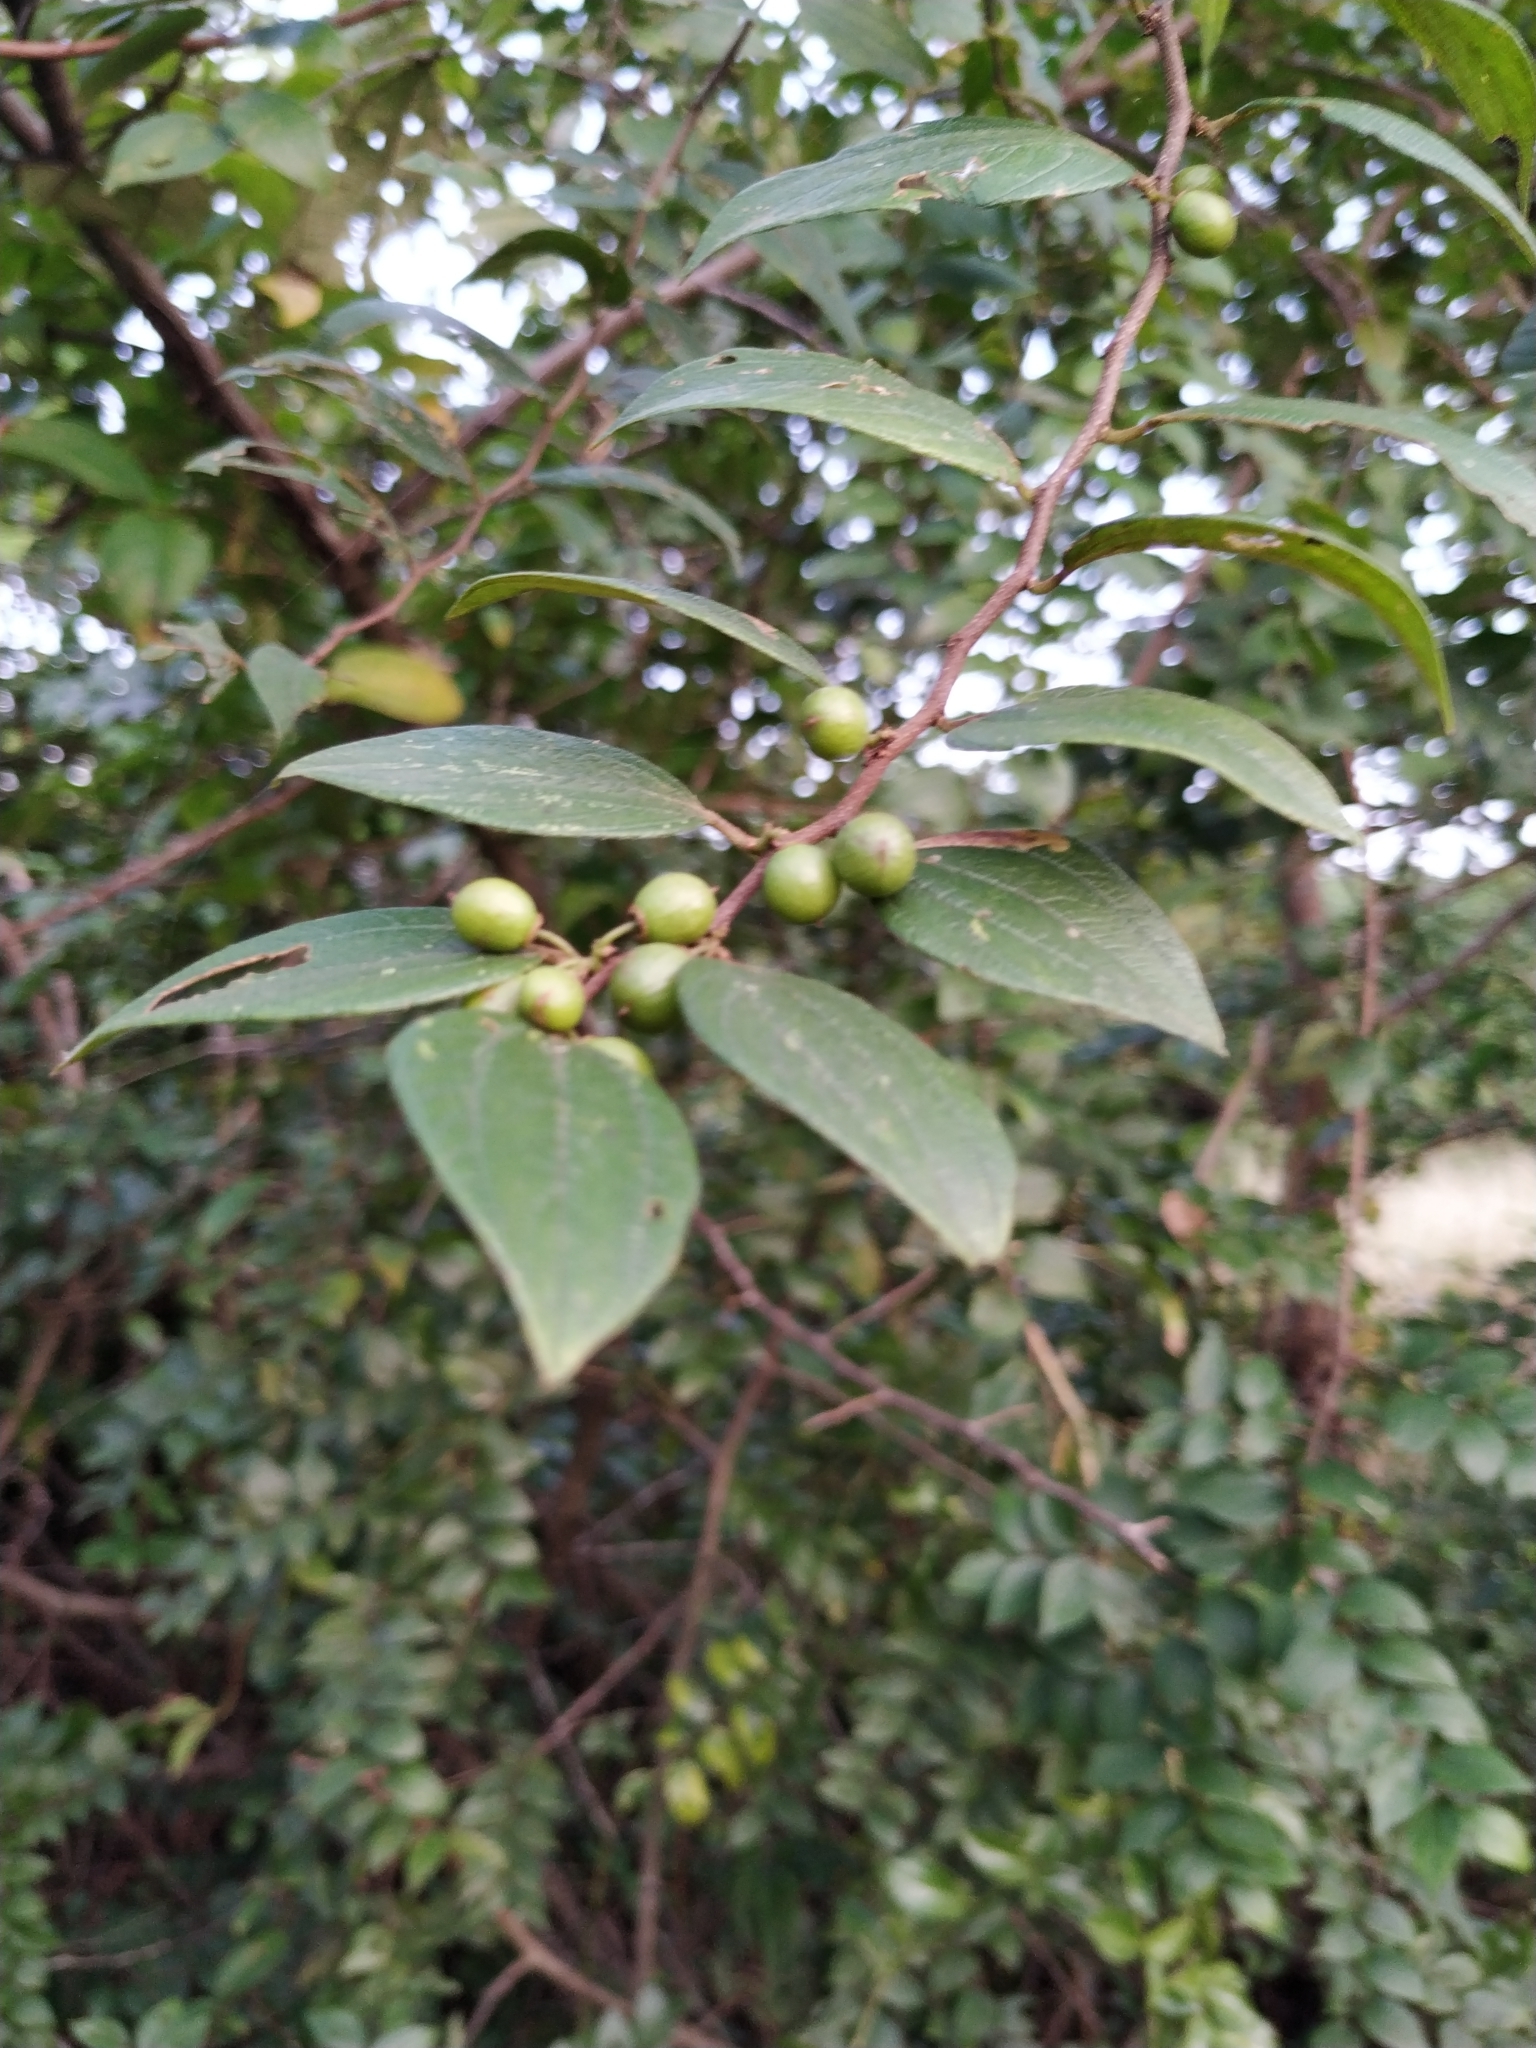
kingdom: Plantae
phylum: Tracheophyta
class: Magnoliopsida
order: Rosales
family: Rhamnaceae
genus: Ziziphus
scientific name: Ziziphus oenopolia
